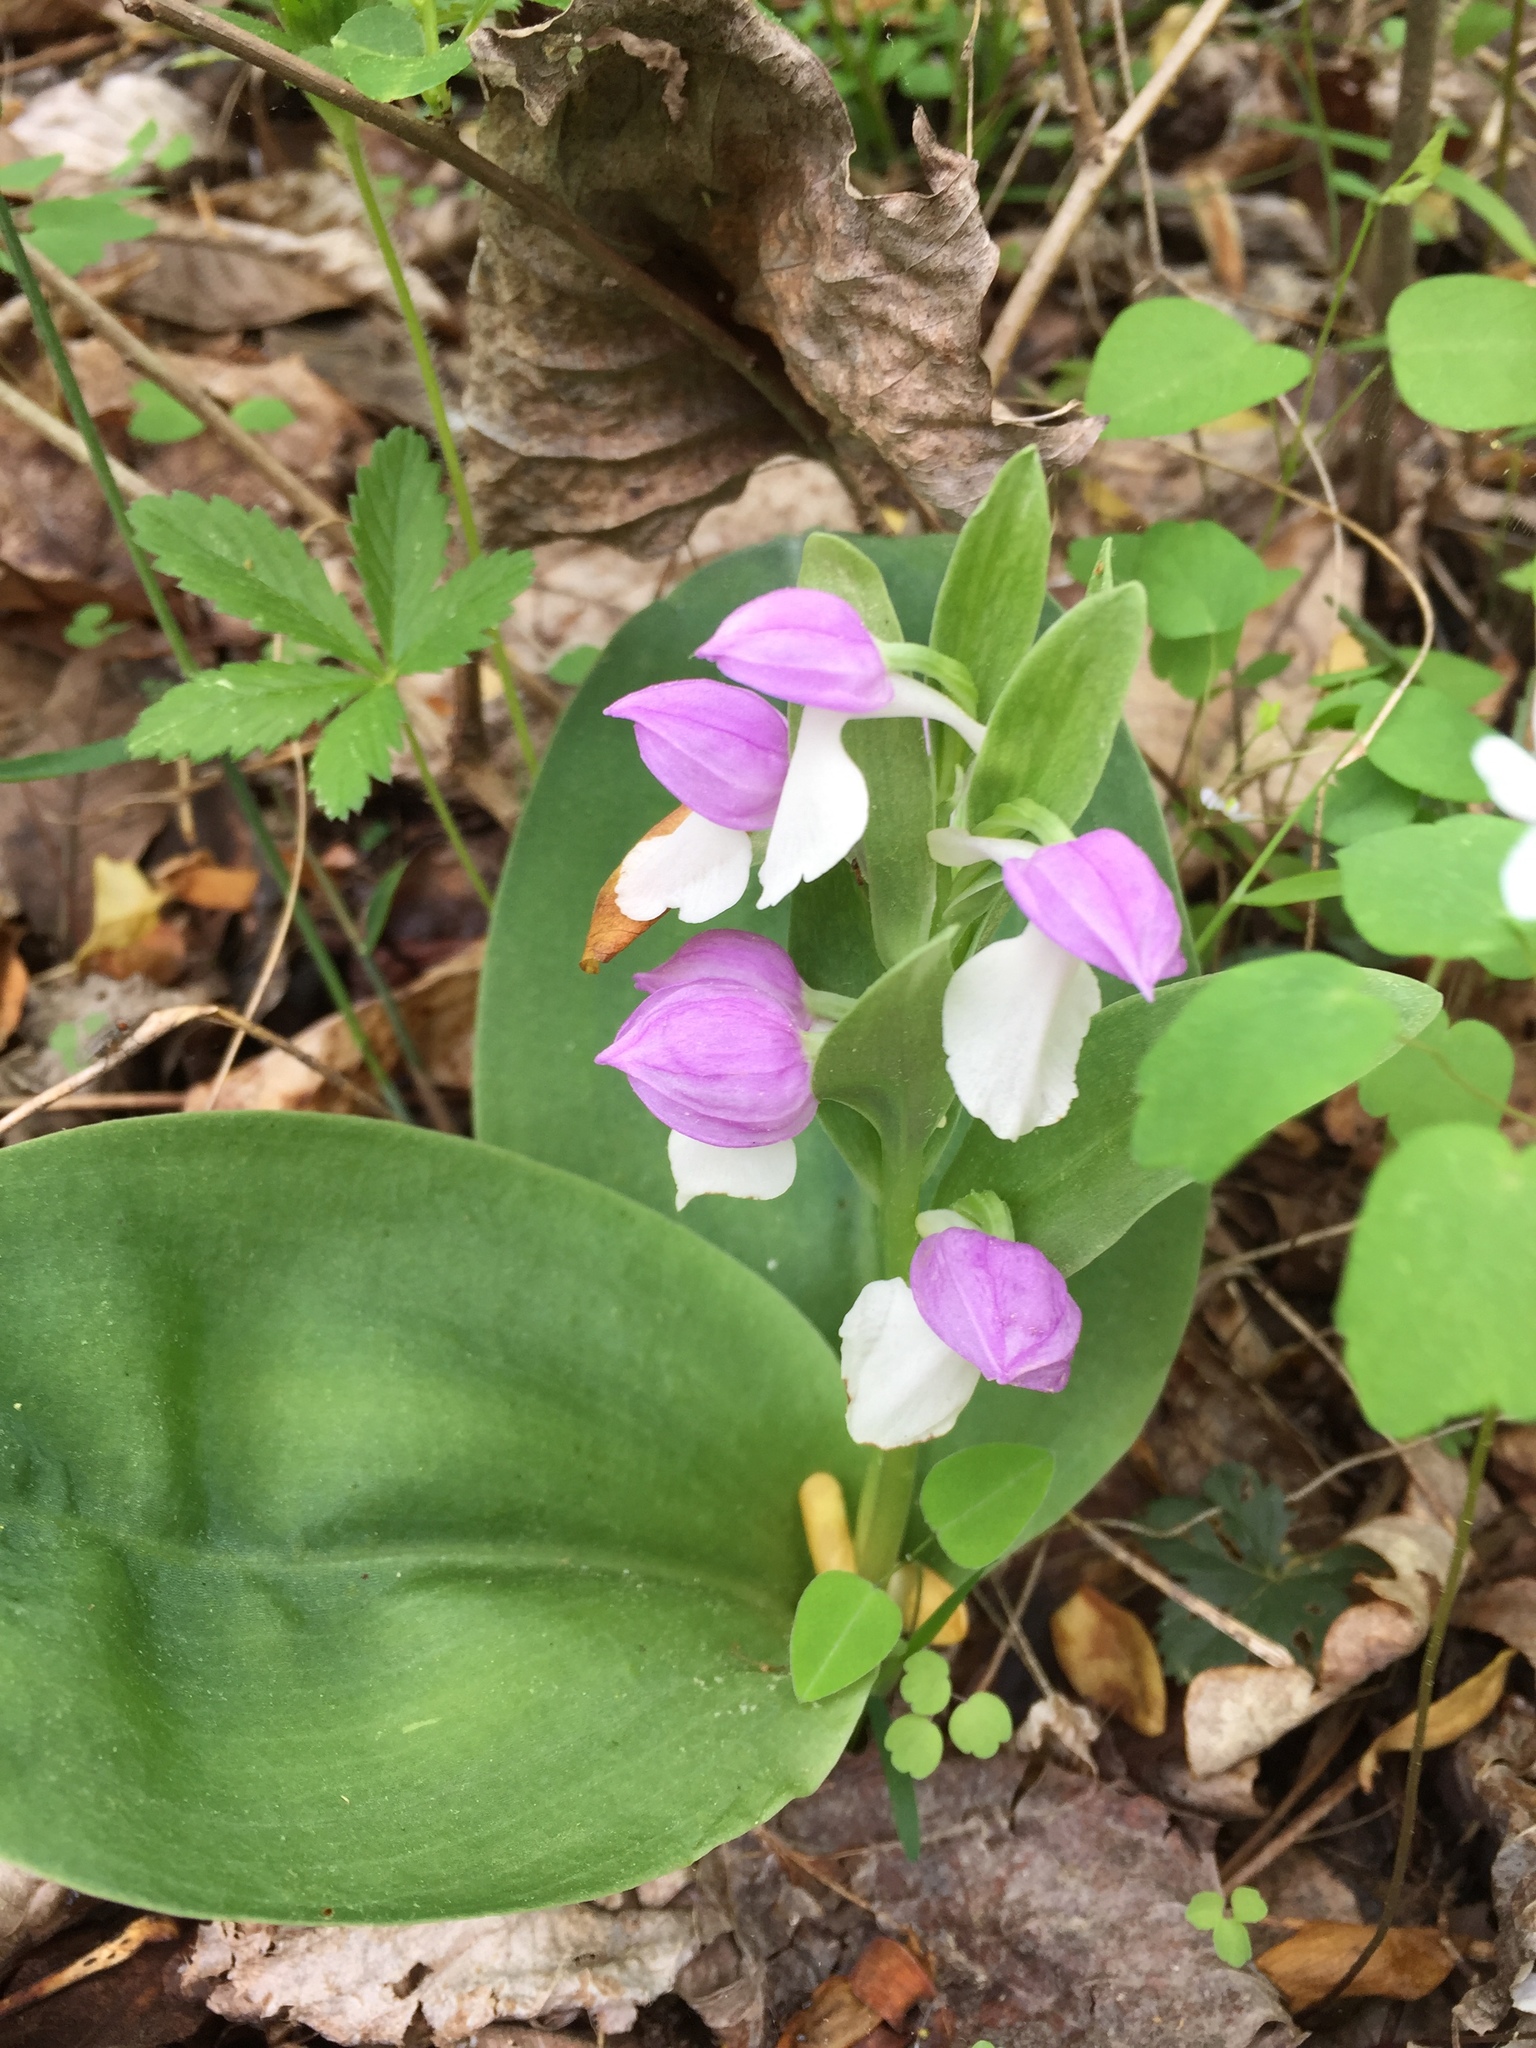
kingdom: Plantae
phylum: Tracheophyta
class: Liliopsida
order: Asparagales
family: Orchidaceae
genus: Galearis
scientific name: Galearis spectabilis
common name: Purple-hooded orchis
